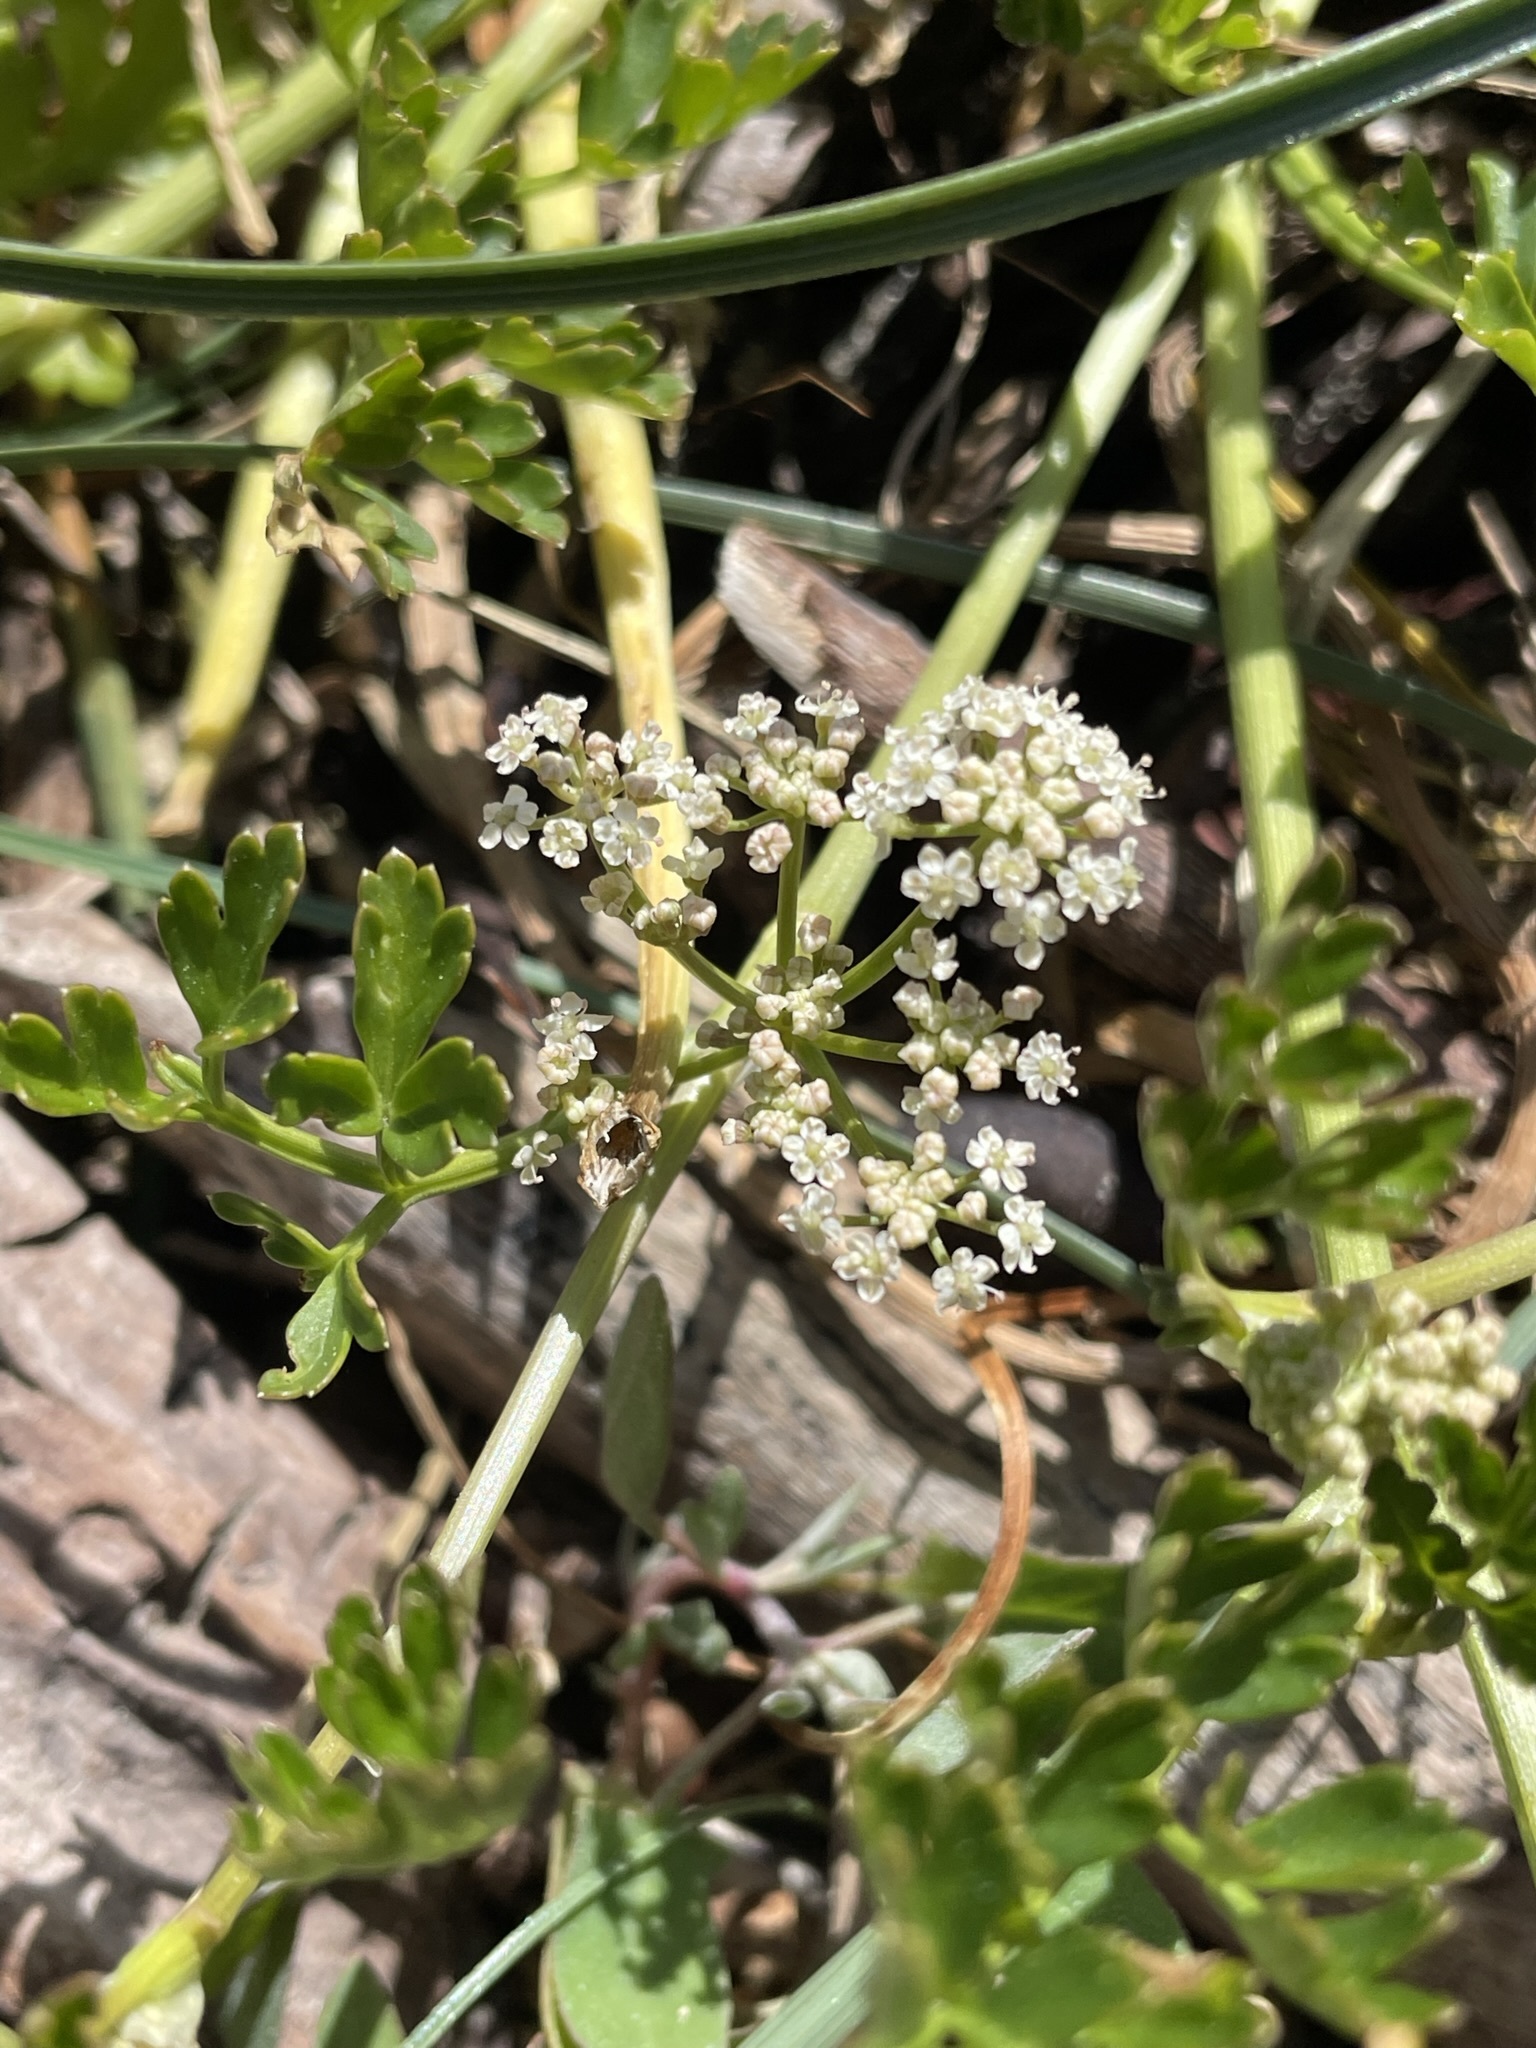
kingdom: Plantae
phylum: Tracheophyta
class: Magnoliopsida
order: Apiales
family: Apiaceae
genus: Apium
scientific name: Apium prostratum
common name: Prostrate marshwort
